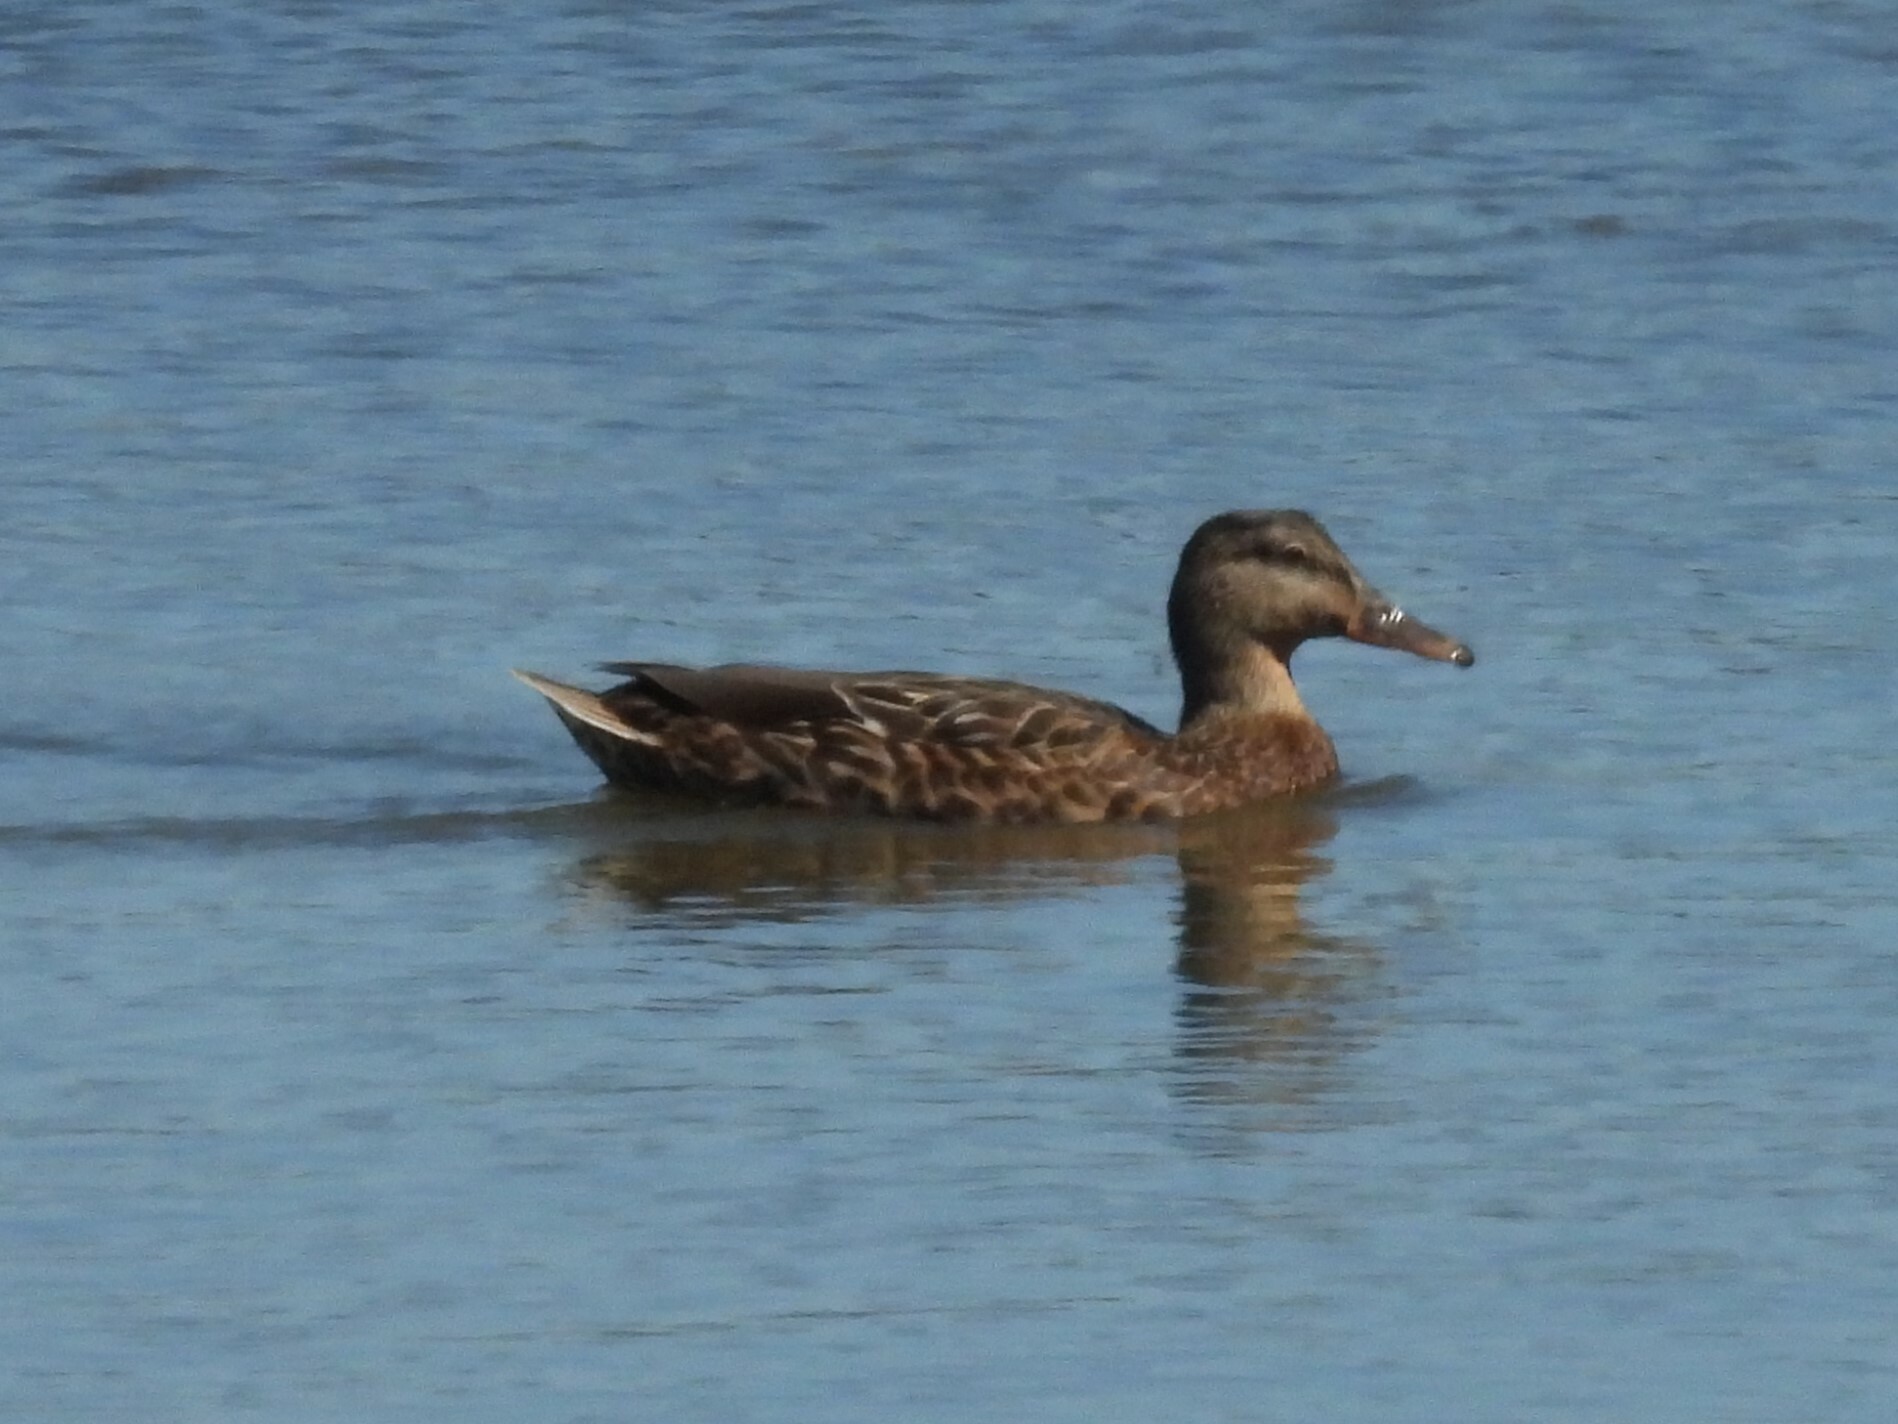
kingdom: Animalia
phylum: Chordata
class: Aves
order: Anseriformes
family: Anatidae
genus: Anas
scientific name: Anas platyrhynchos
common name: Mallard
